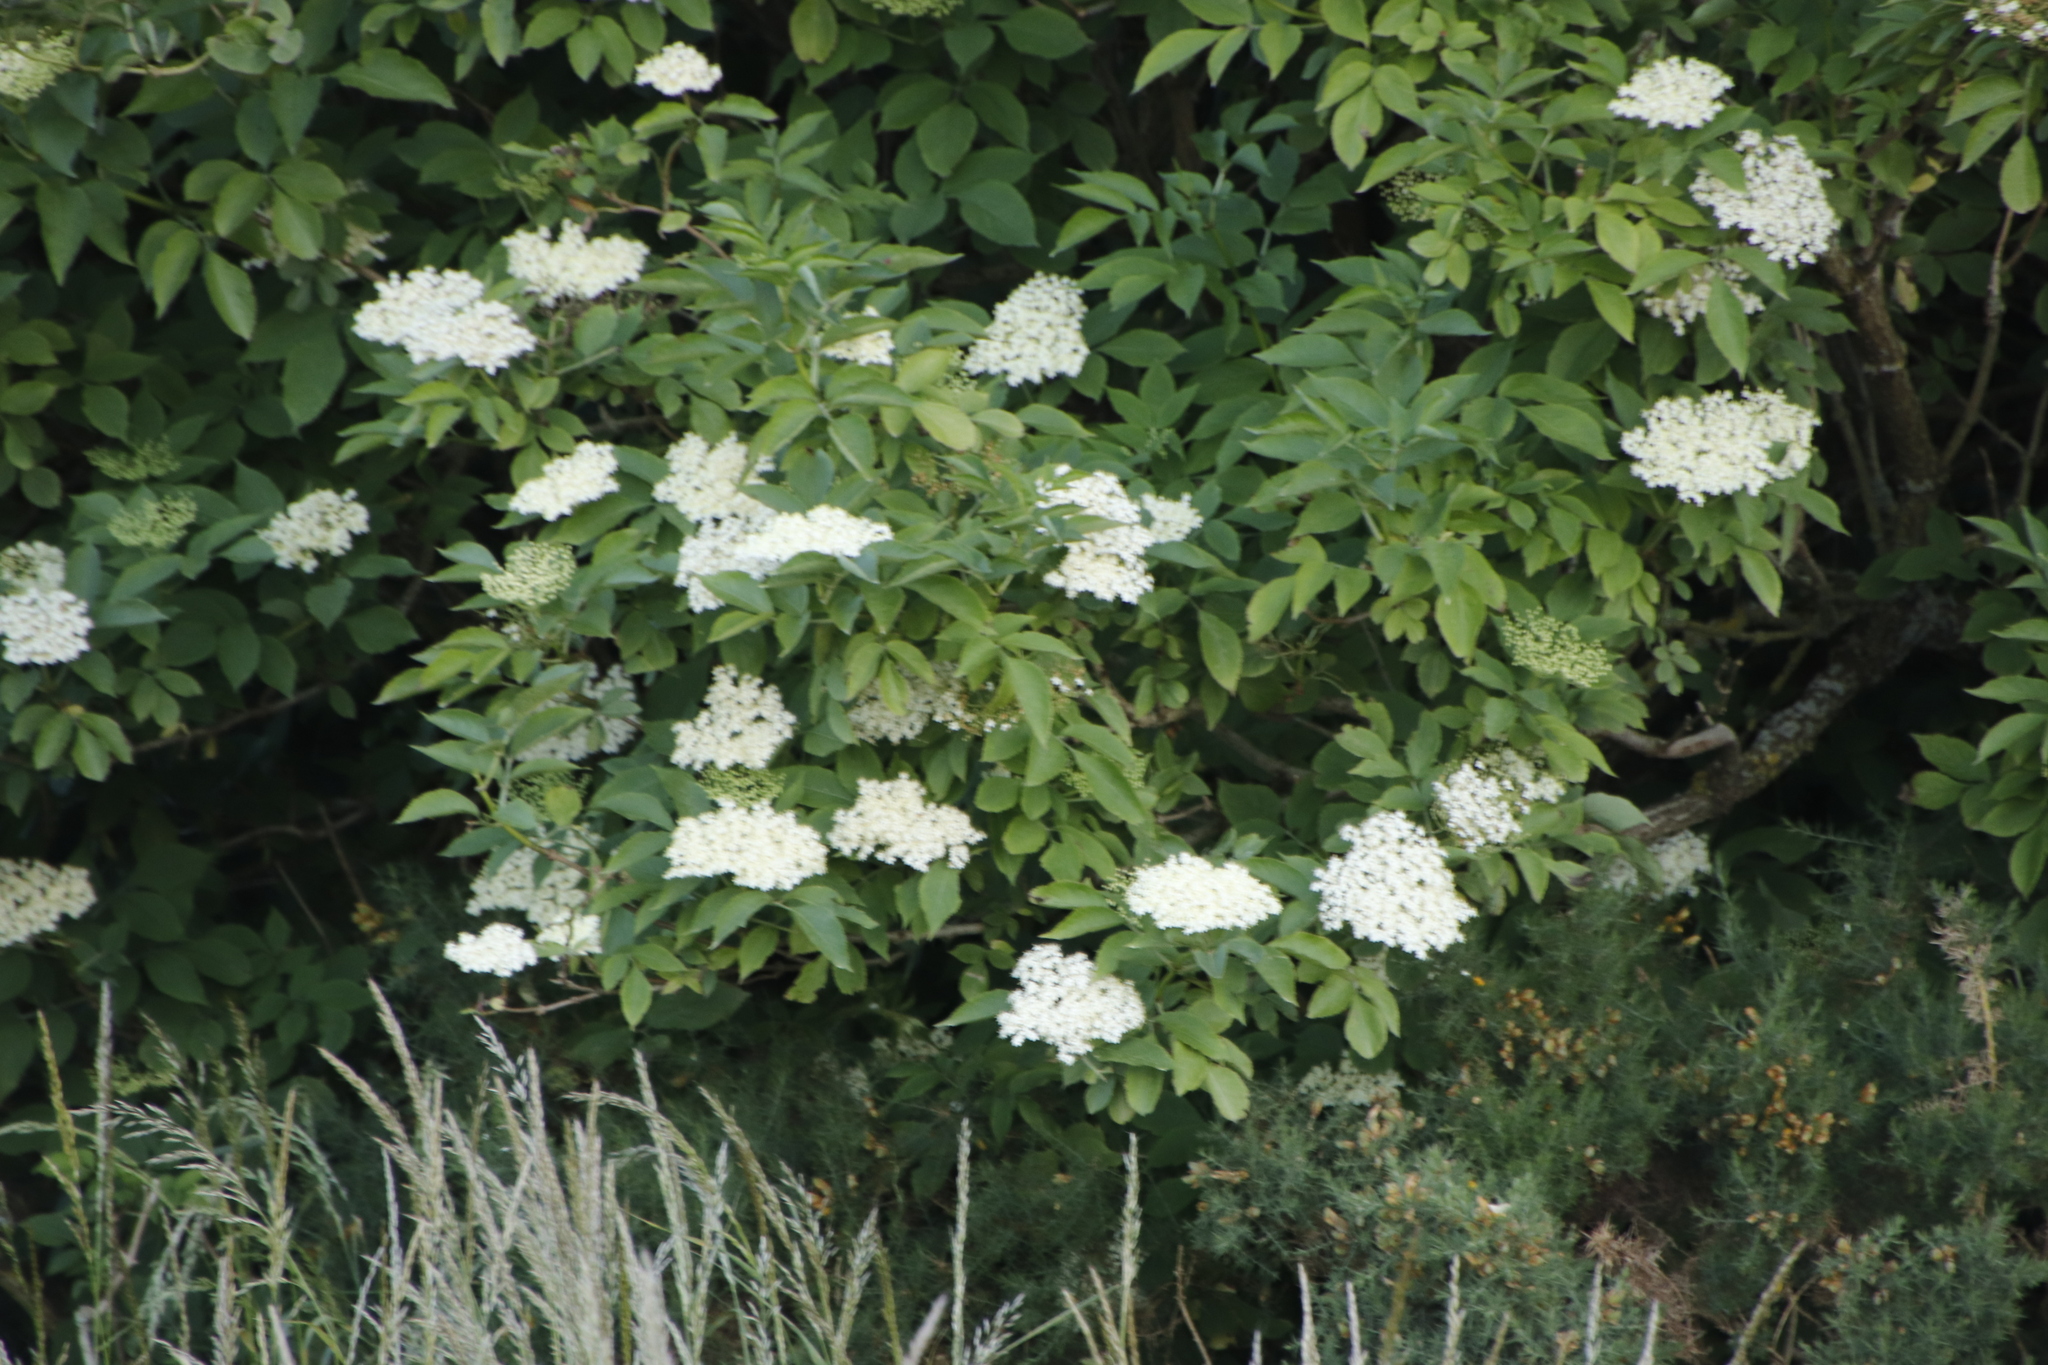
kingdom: Plantae
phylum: Tracheophyta
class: Magnoliopsida
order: Dipsacales
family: Viburnaceae
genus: Sambucus
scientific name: Sambucus nigra
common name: Elder
